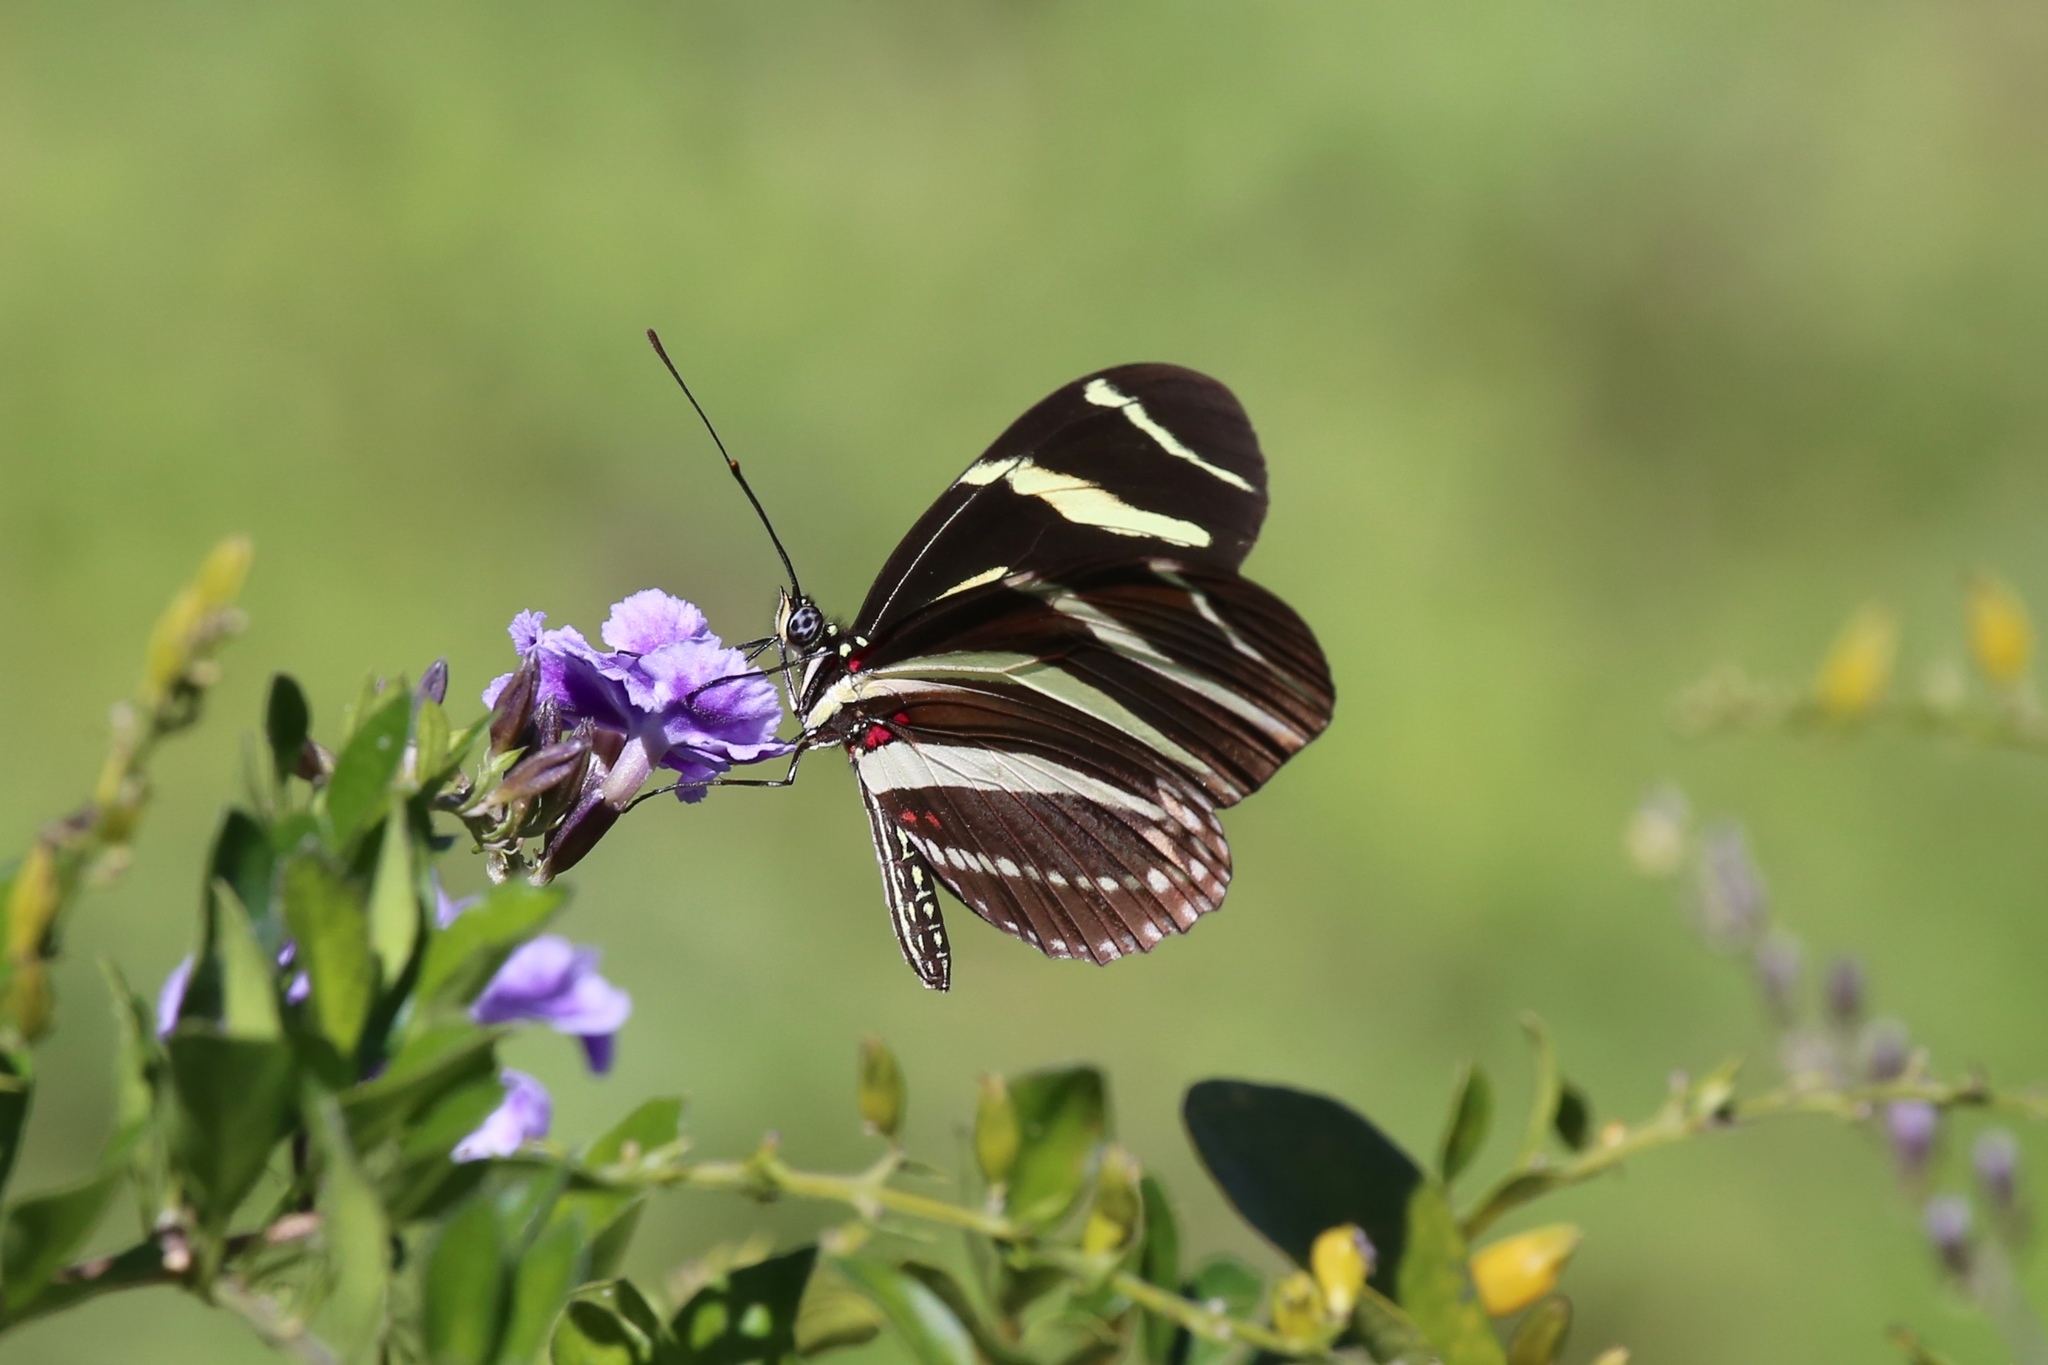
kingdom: Animalia
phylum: Arthropoda
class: Insecta
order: Lepidoptera
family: Nymphalidae
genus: Heliconius
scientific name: Heliconius charithonia
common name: Zebra long wing
